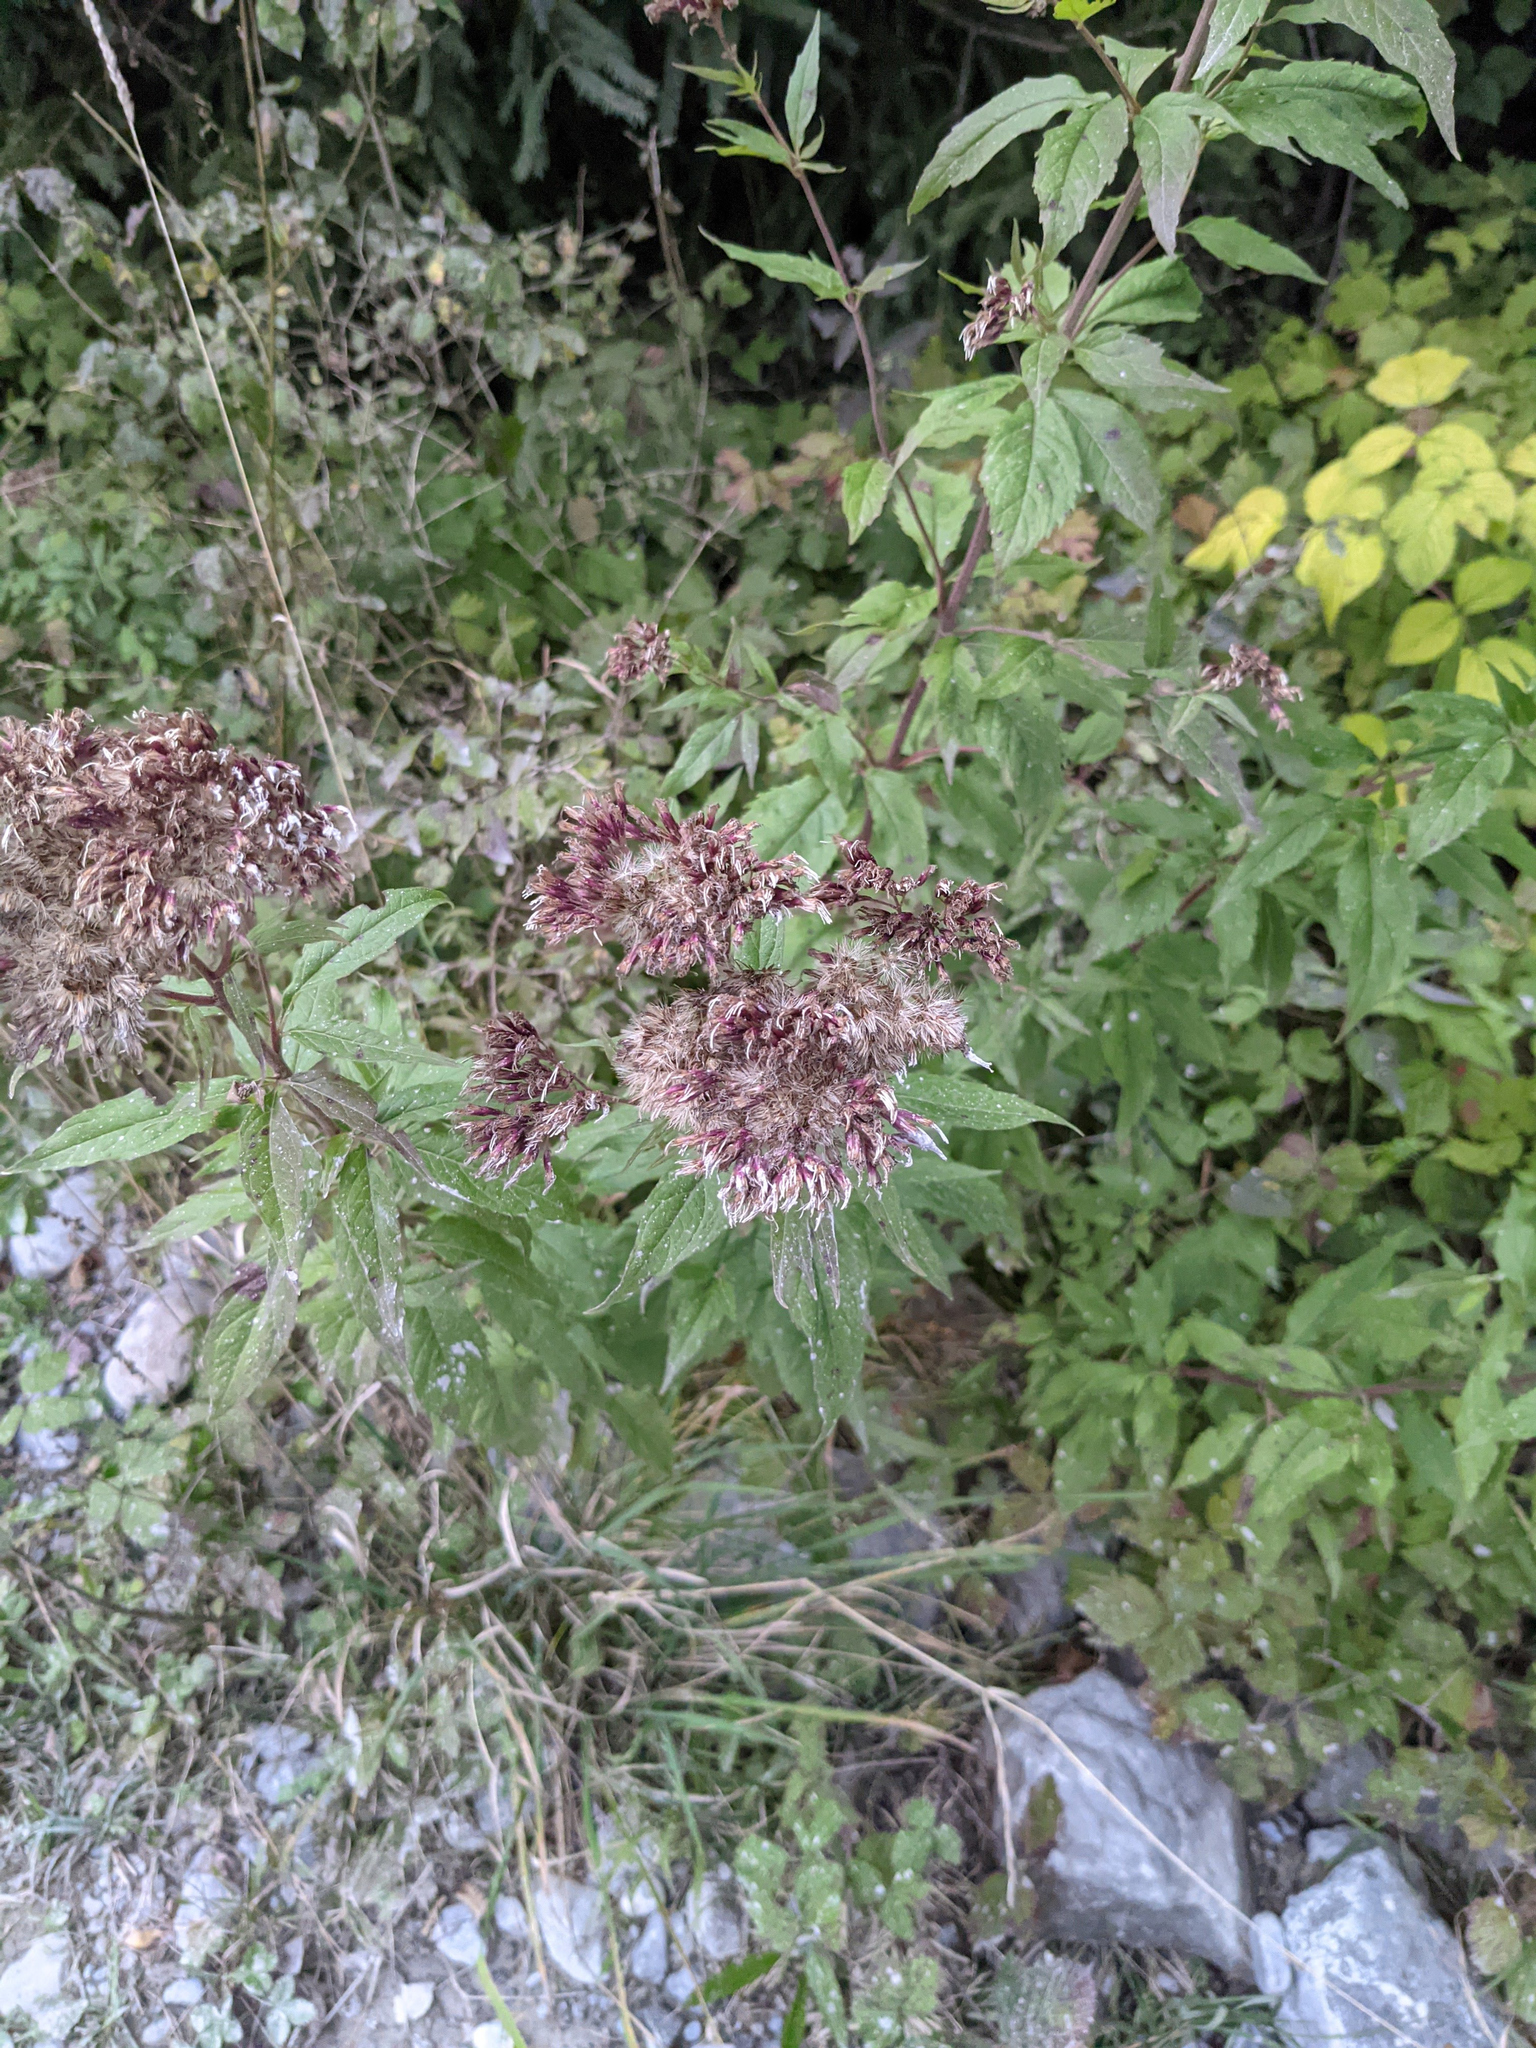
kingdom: Plantae
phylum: Tracheophyta
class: Magnoliopsida
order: Asterales
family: Asteraceae
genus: Eupatorium
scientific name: Eupatorium cannabinum
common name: Hemp-agrimony
